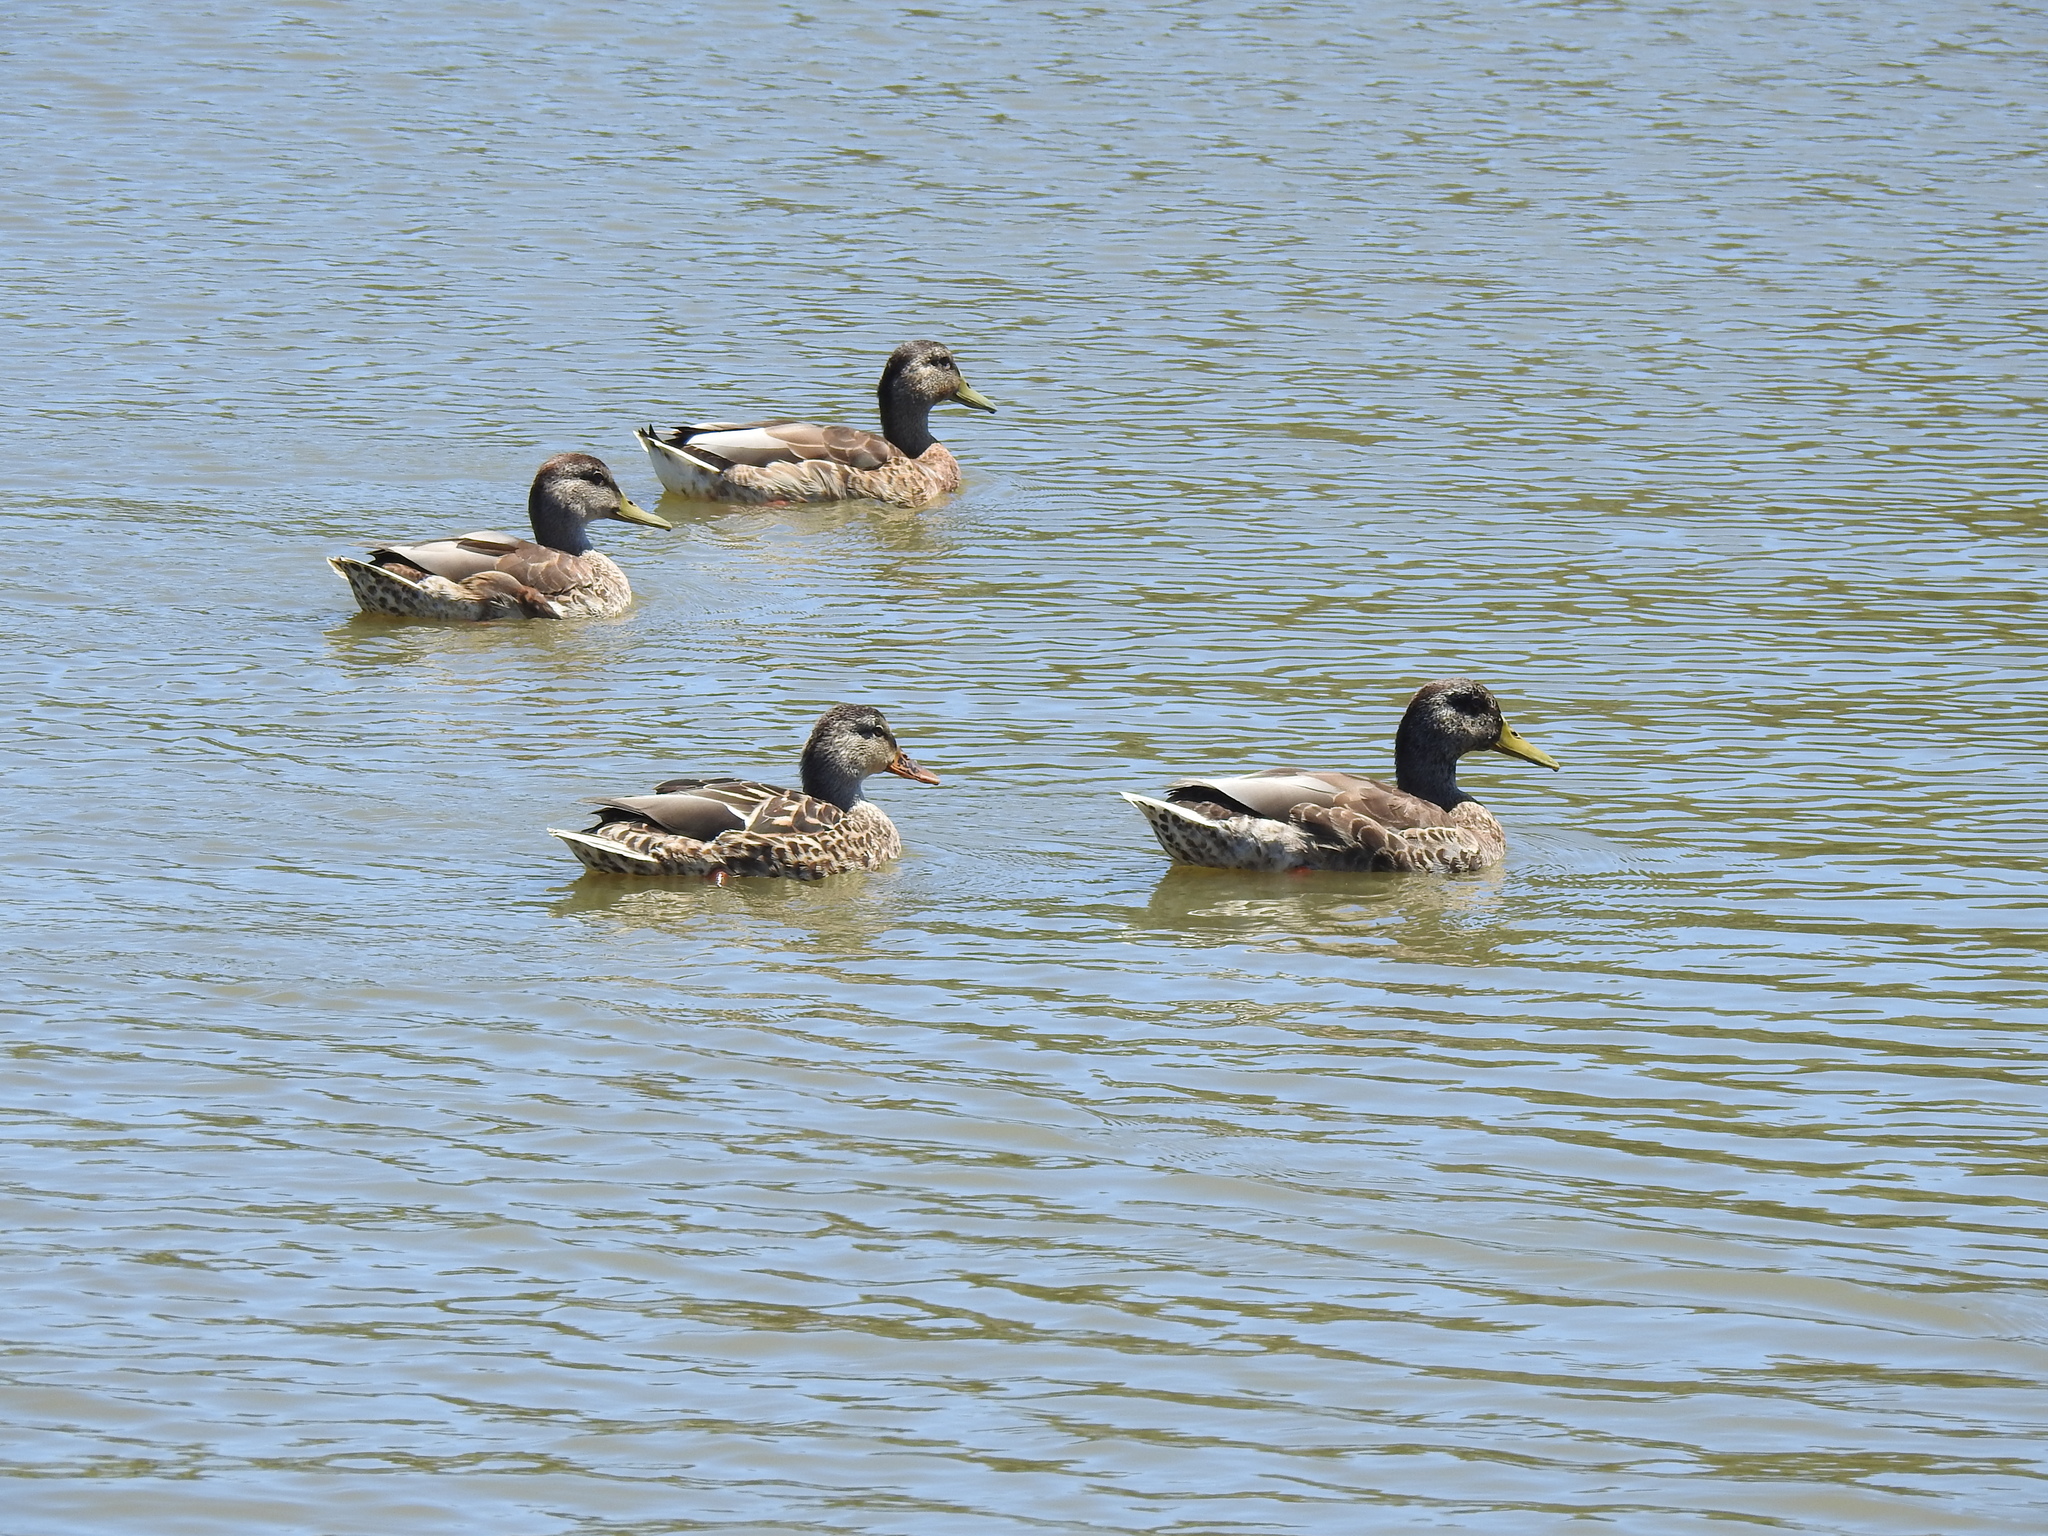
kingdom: Animalia
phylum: Chordata
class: Aves
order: Anseriformes
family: Anatidae
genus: Anas
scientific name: Anas platyrhynchos
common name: Mallard
